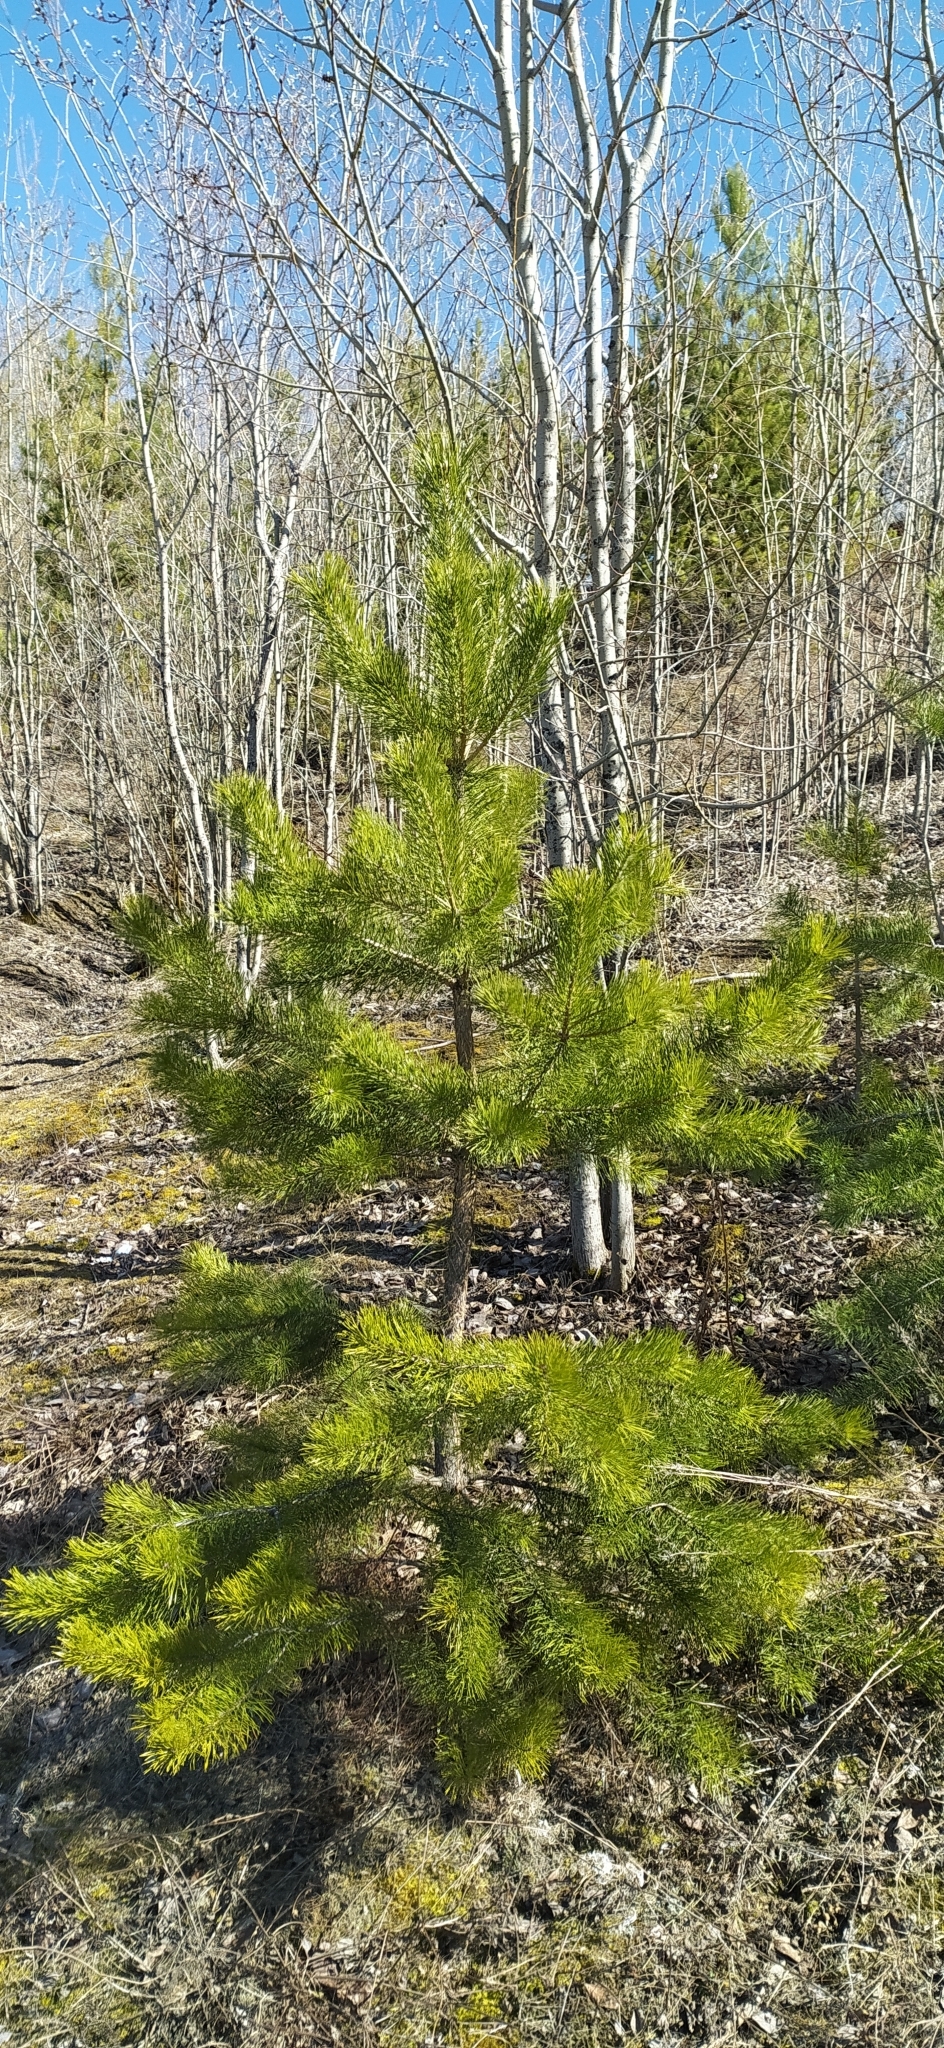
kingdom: Plantae
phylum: Tracheophyta
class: Pinopsida
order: Pinales
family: Pinaceae
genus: Pinus
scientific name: Pinus sylvestris
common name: Scots pine
